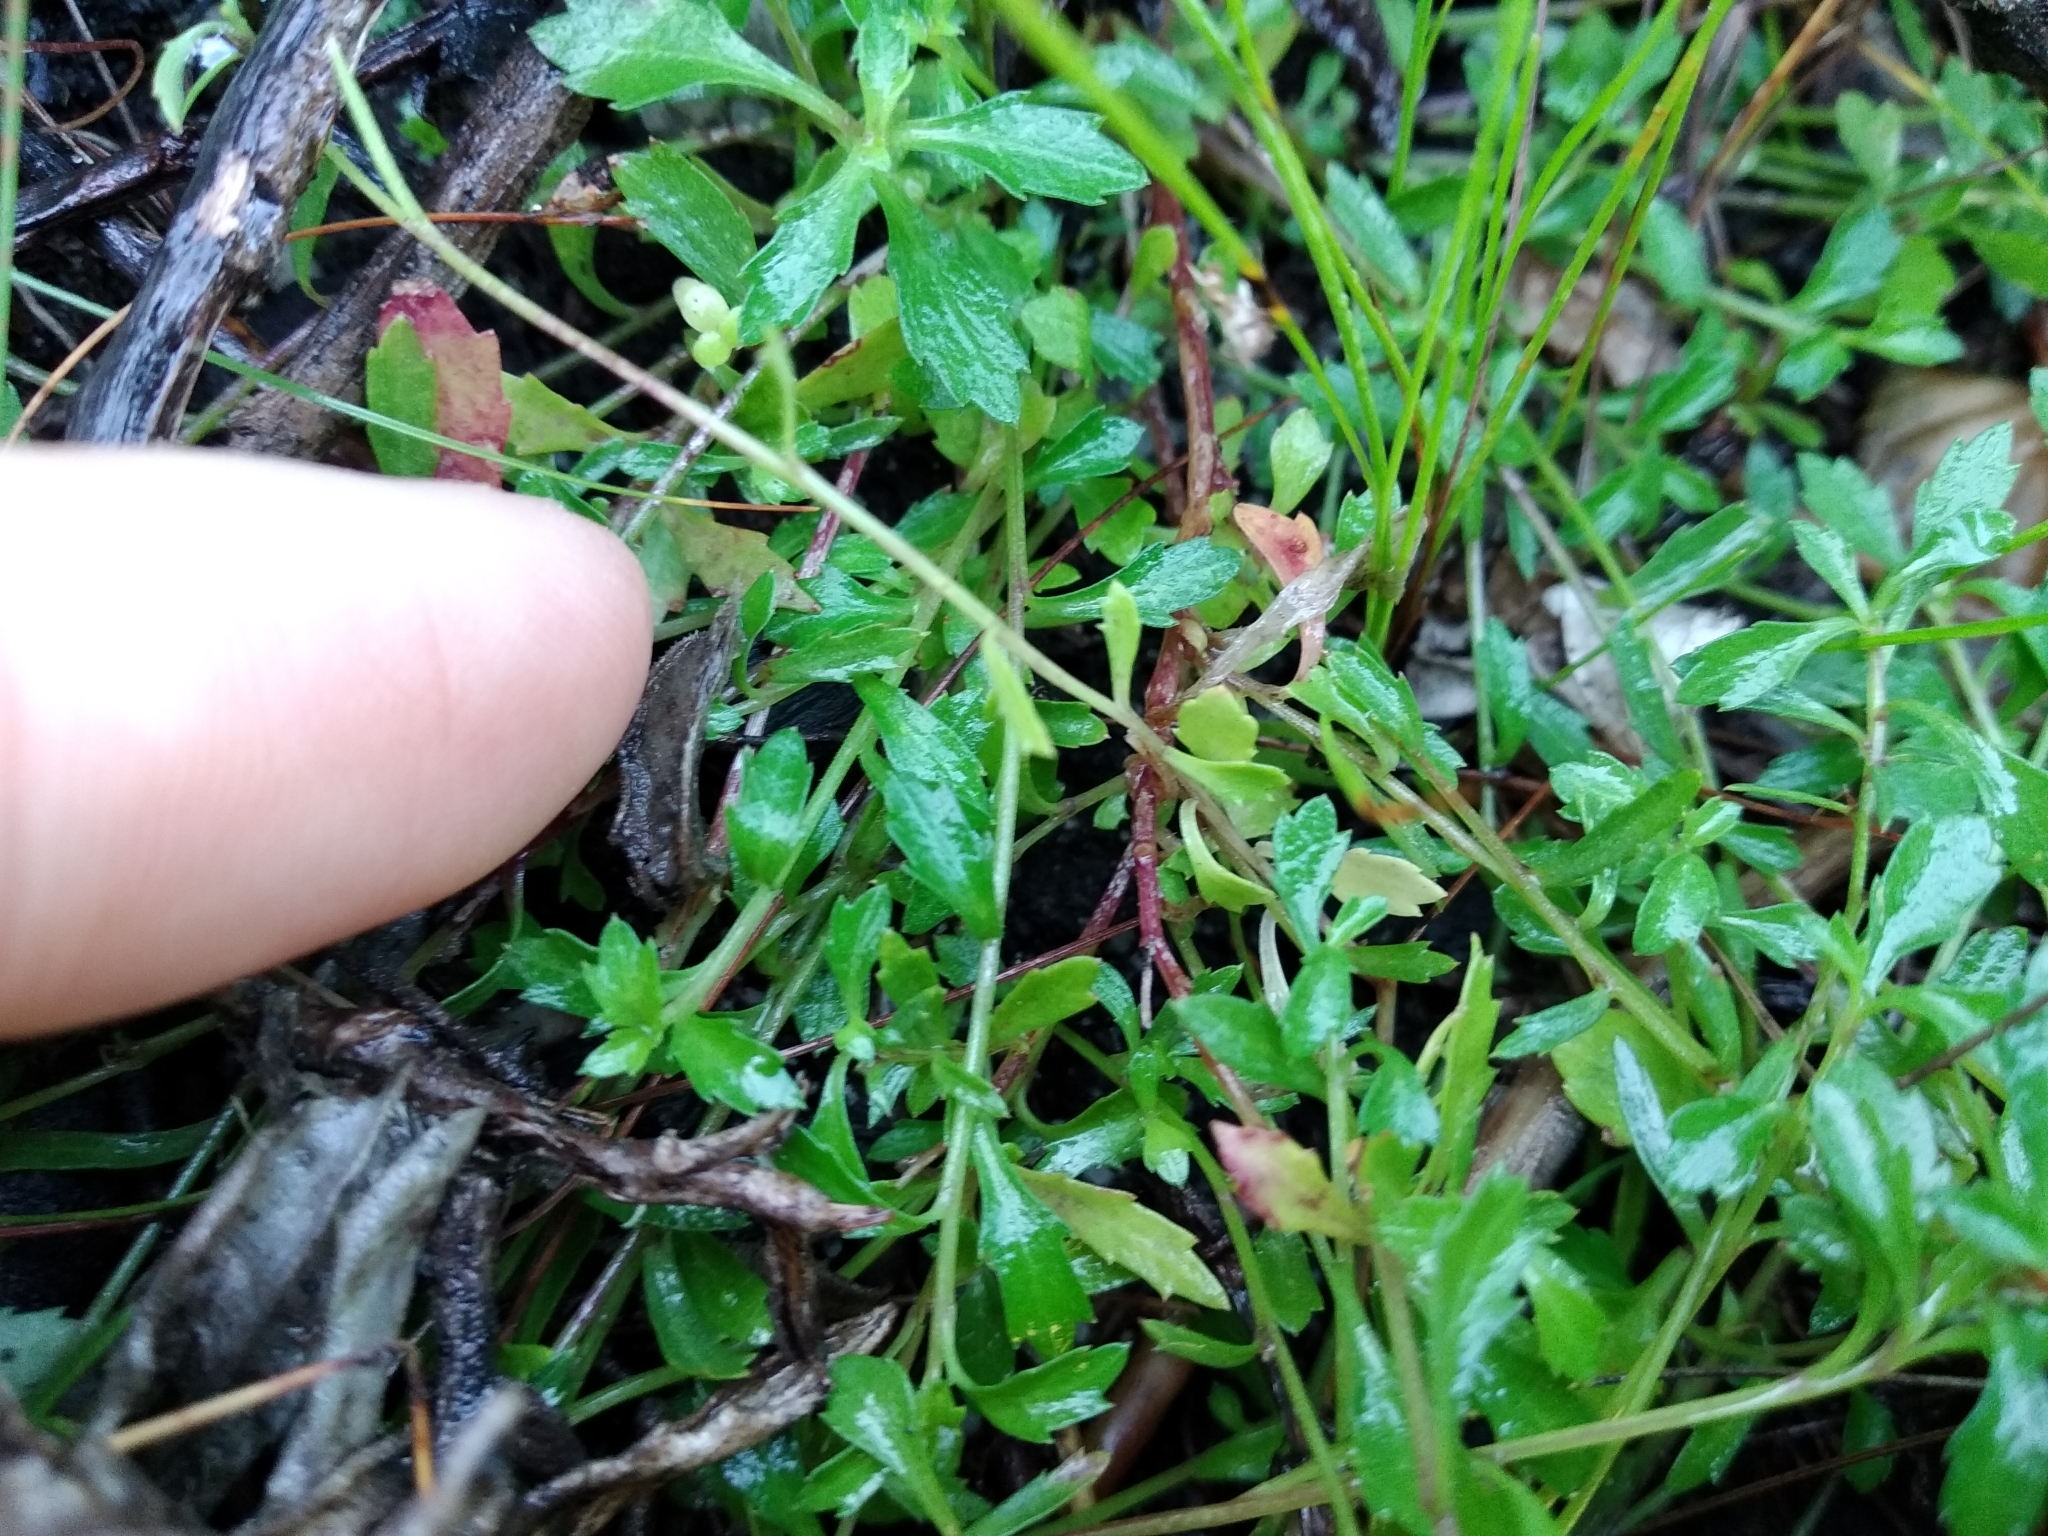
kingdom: Plantae
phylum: Tracheophyta
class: Magnoliopsida
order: Asterales
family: Campanulaceae
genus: Lobelia
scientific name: Lobelia eckloniana
